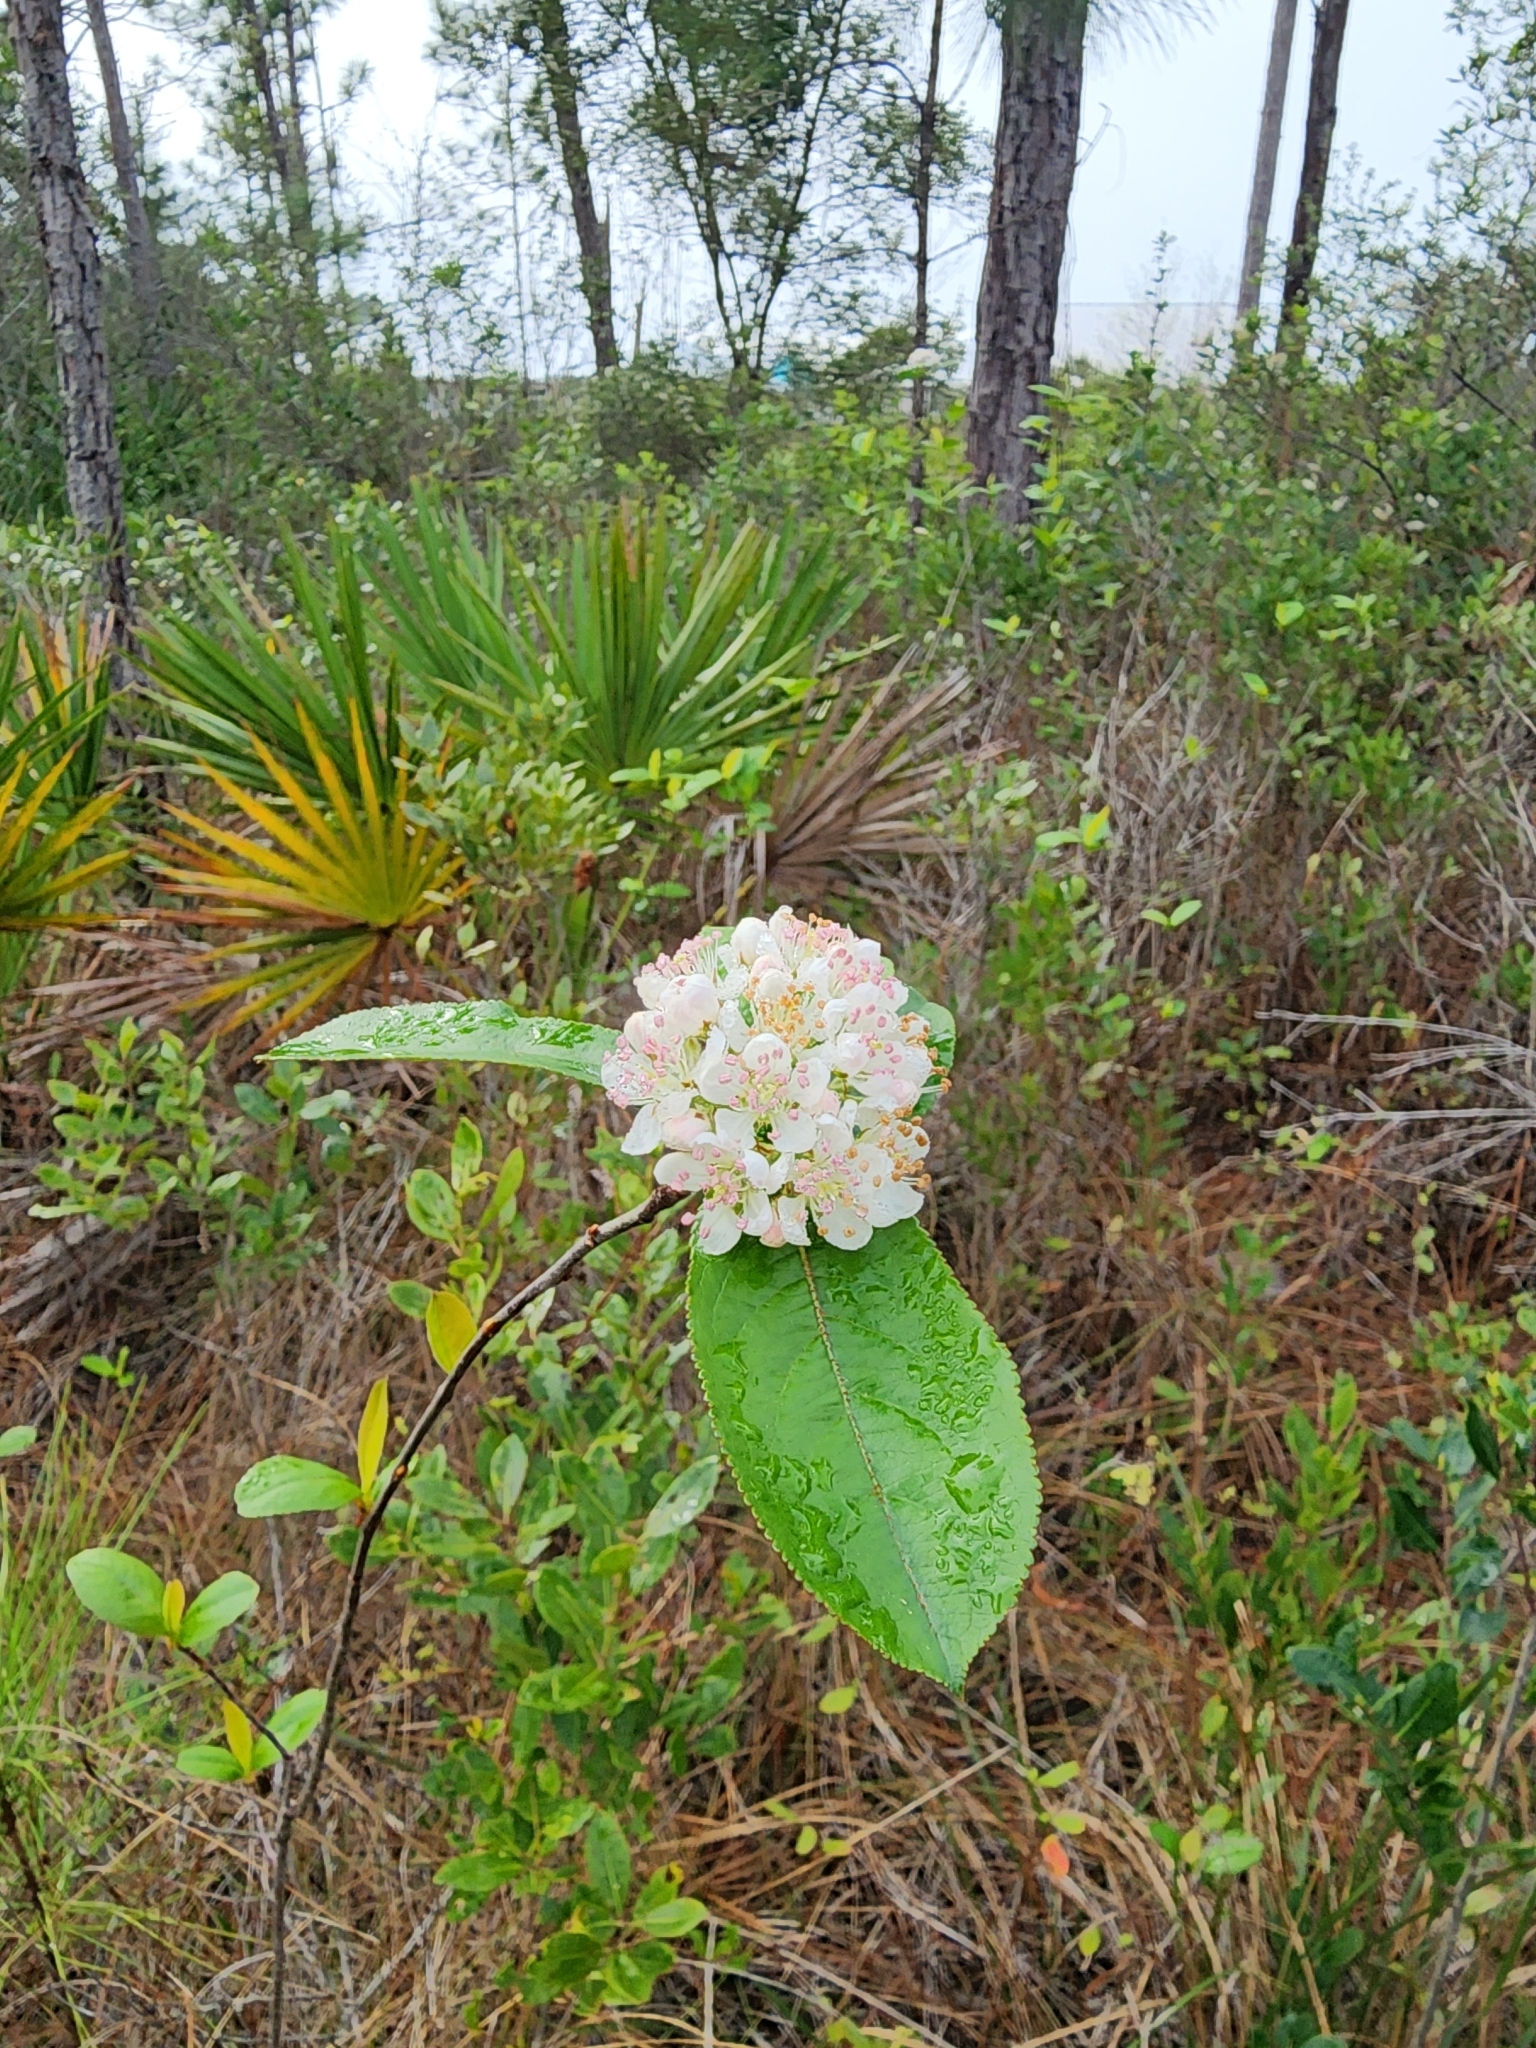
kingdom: Plantae
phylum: Tracheophyta
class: Magnoliopsida
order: Rosales
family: Rosaceae
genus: Aronia
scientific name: Aronia arbutifolia
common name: Red chokeberry
